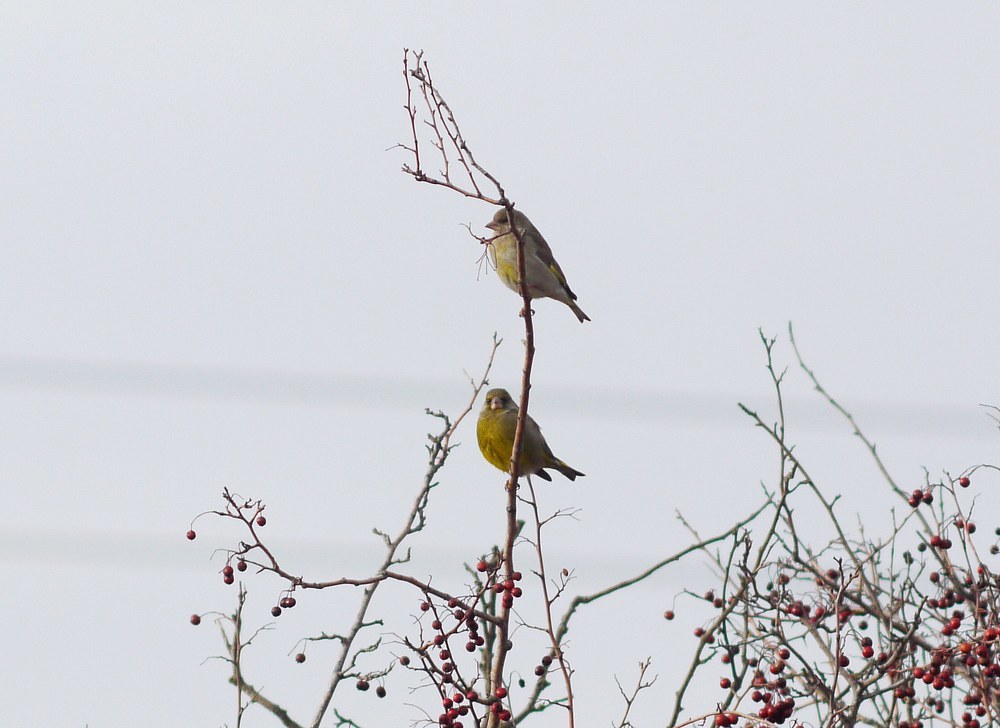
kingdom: Plantae
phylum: Tracheophyta
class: Liliopsida
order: Poales
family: Poaceae
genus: Chloris
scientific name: Chloris chloris
